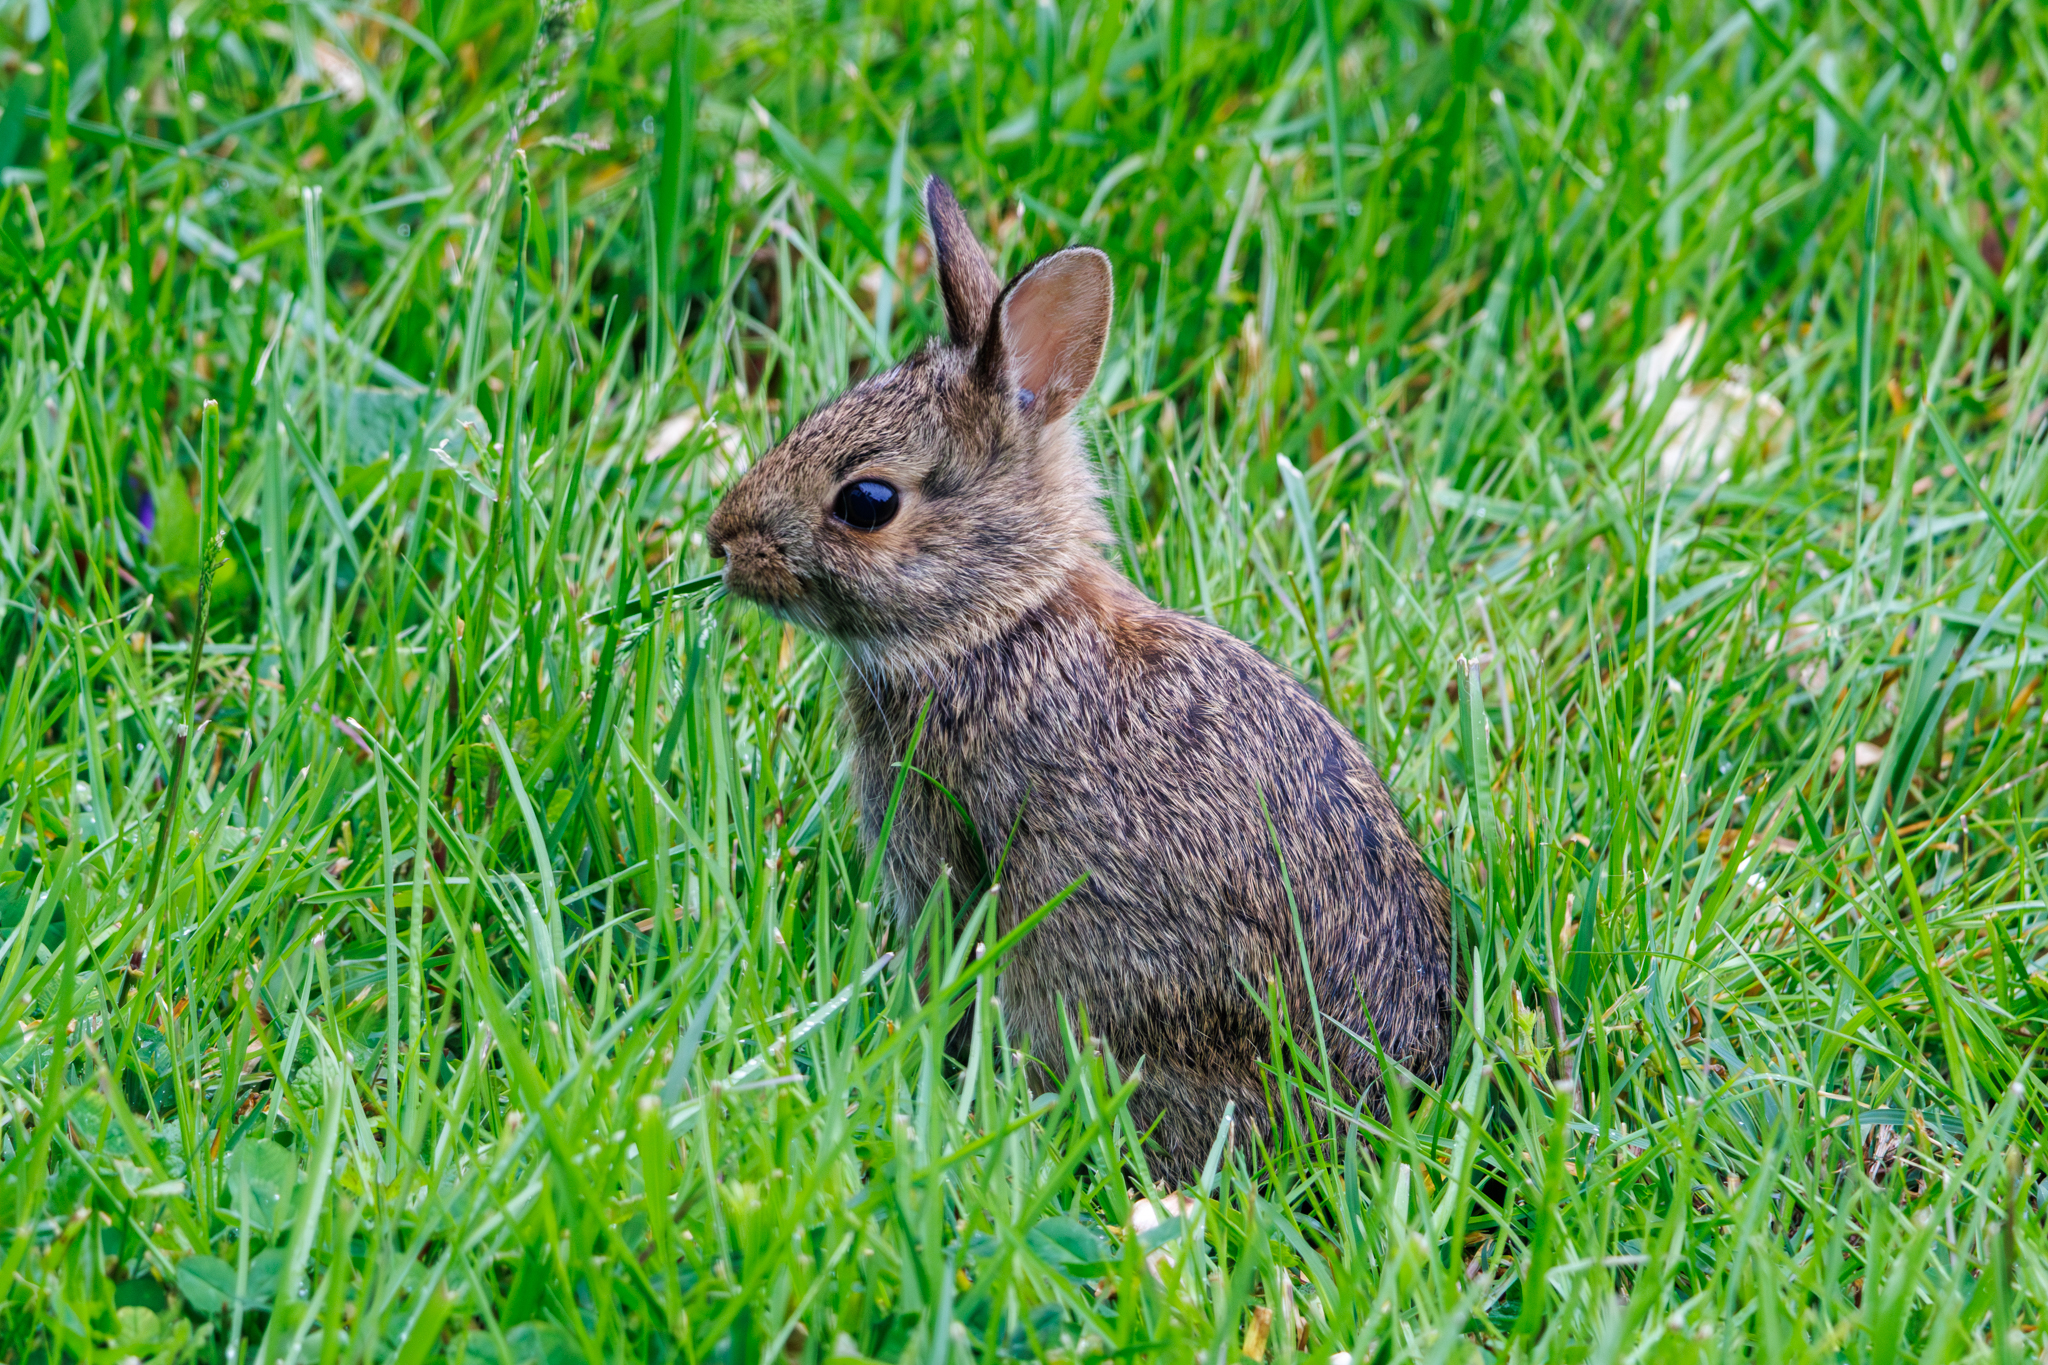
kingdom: Animalia
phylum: Chordata
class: Mammalia
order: Lagomorpha
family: Leporidae
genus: Sylvilagus
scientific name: Sylvilagus floridanus
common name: Eastern cottontail
